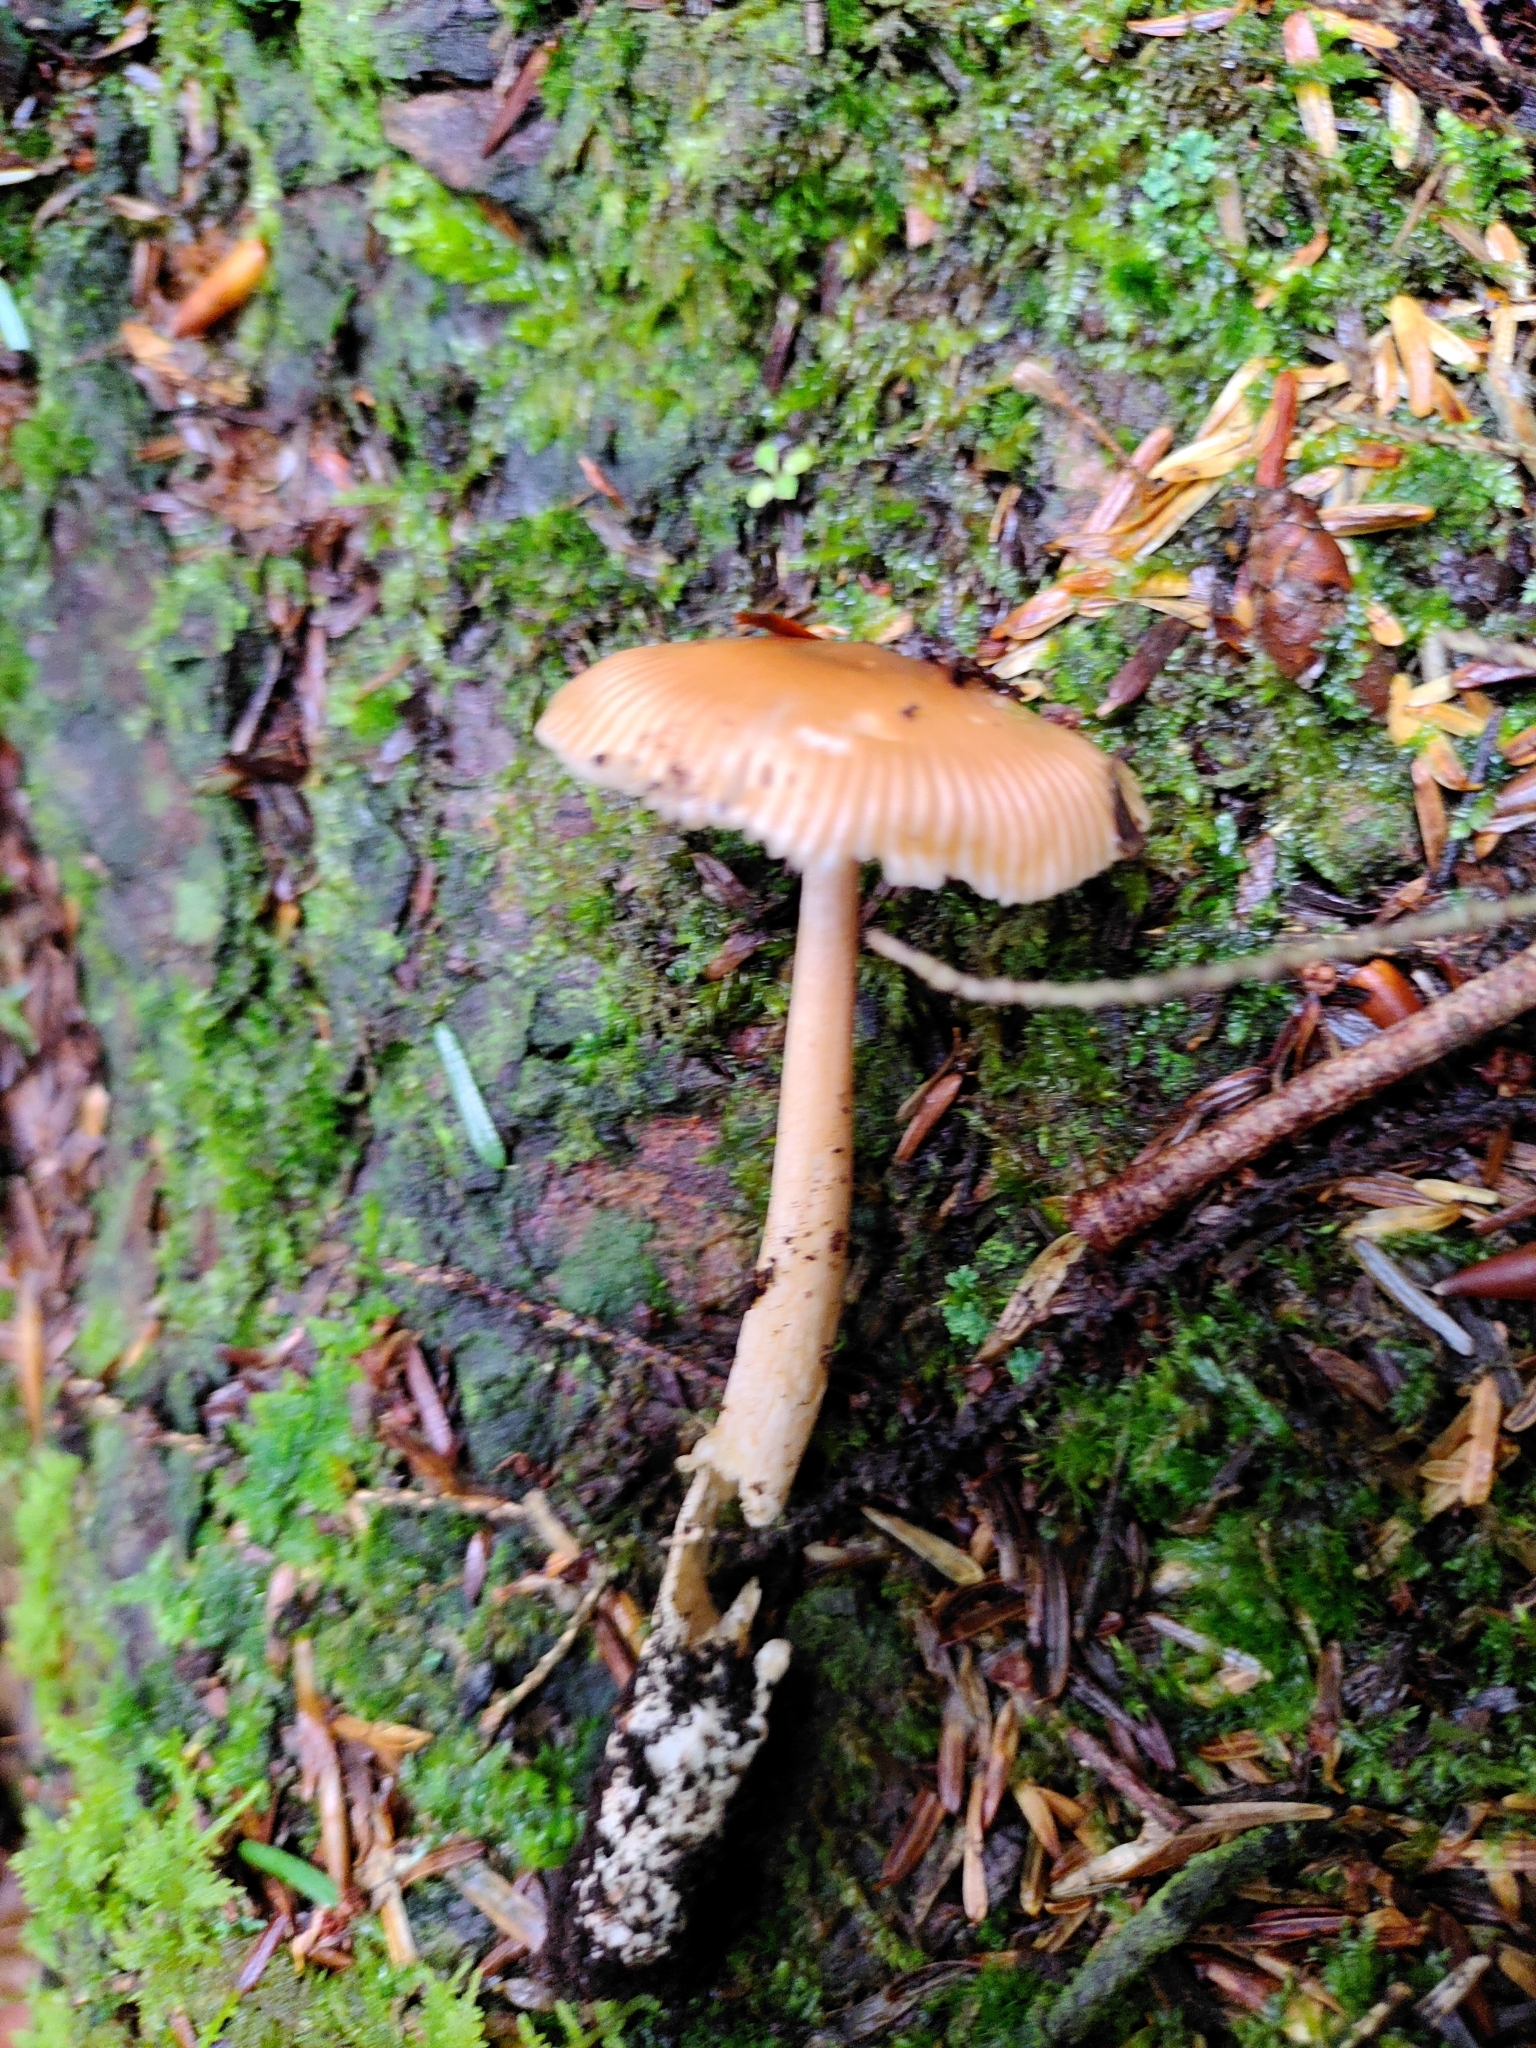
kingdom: Fungi
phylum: Basidiomycota
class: Agaricomycetes
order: Agaricales
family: Amanitaceae
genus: Amanita
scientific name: Amanita fulva
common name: Tawny grisette
